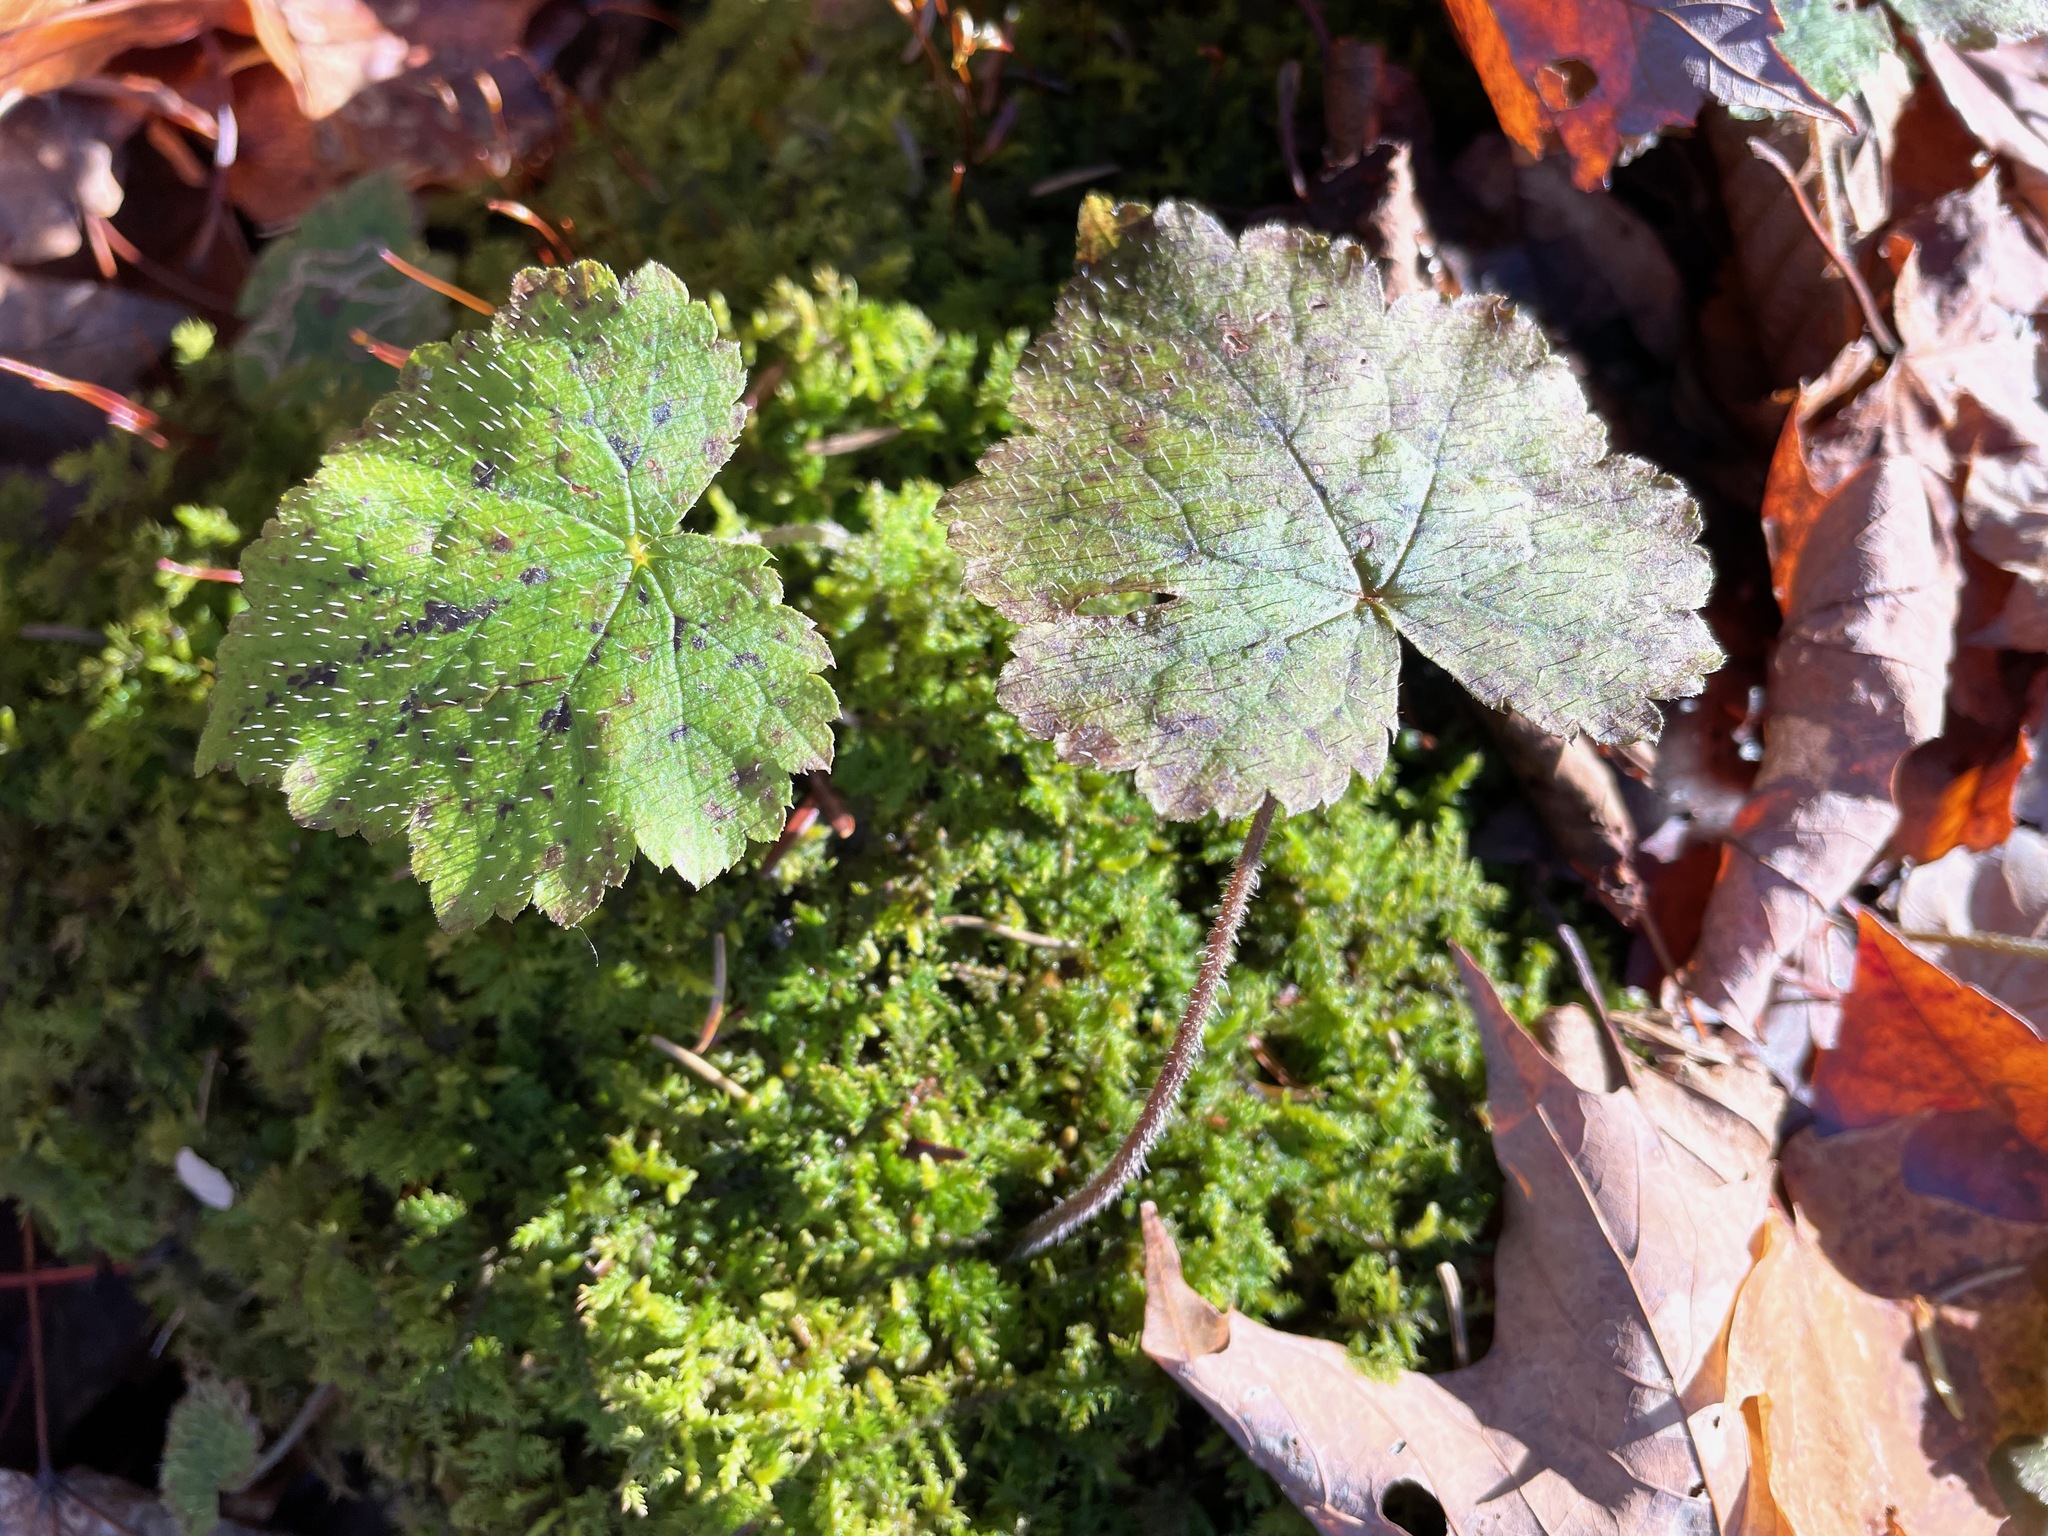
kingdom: Plantae
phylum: Tracheophyta
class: Magnoliopsida
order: Saxifragales
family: Saxifragaceae
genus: Tiarella
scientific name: Tiarella stolonifera
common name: Stoloniferous foamflower
